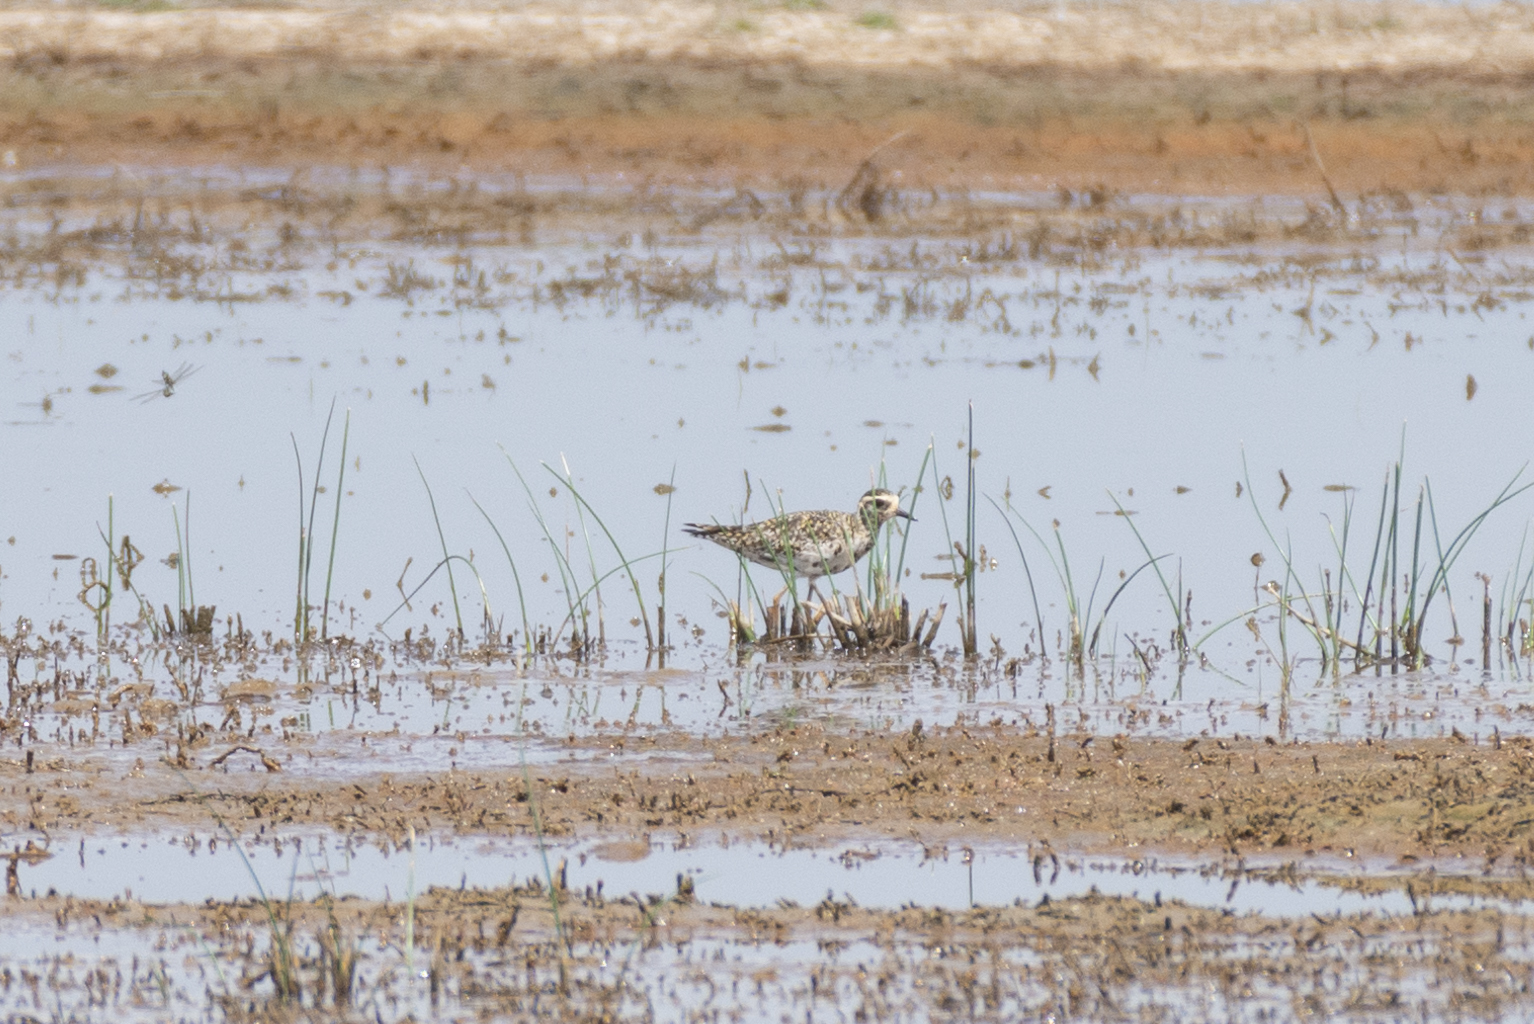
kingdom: Animalia
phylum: Chordata
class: Aves
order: Charadriiformes
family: Charadriidae
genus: Pluvialis
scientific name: Pluvialis fulva
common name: Pacific golden plover
